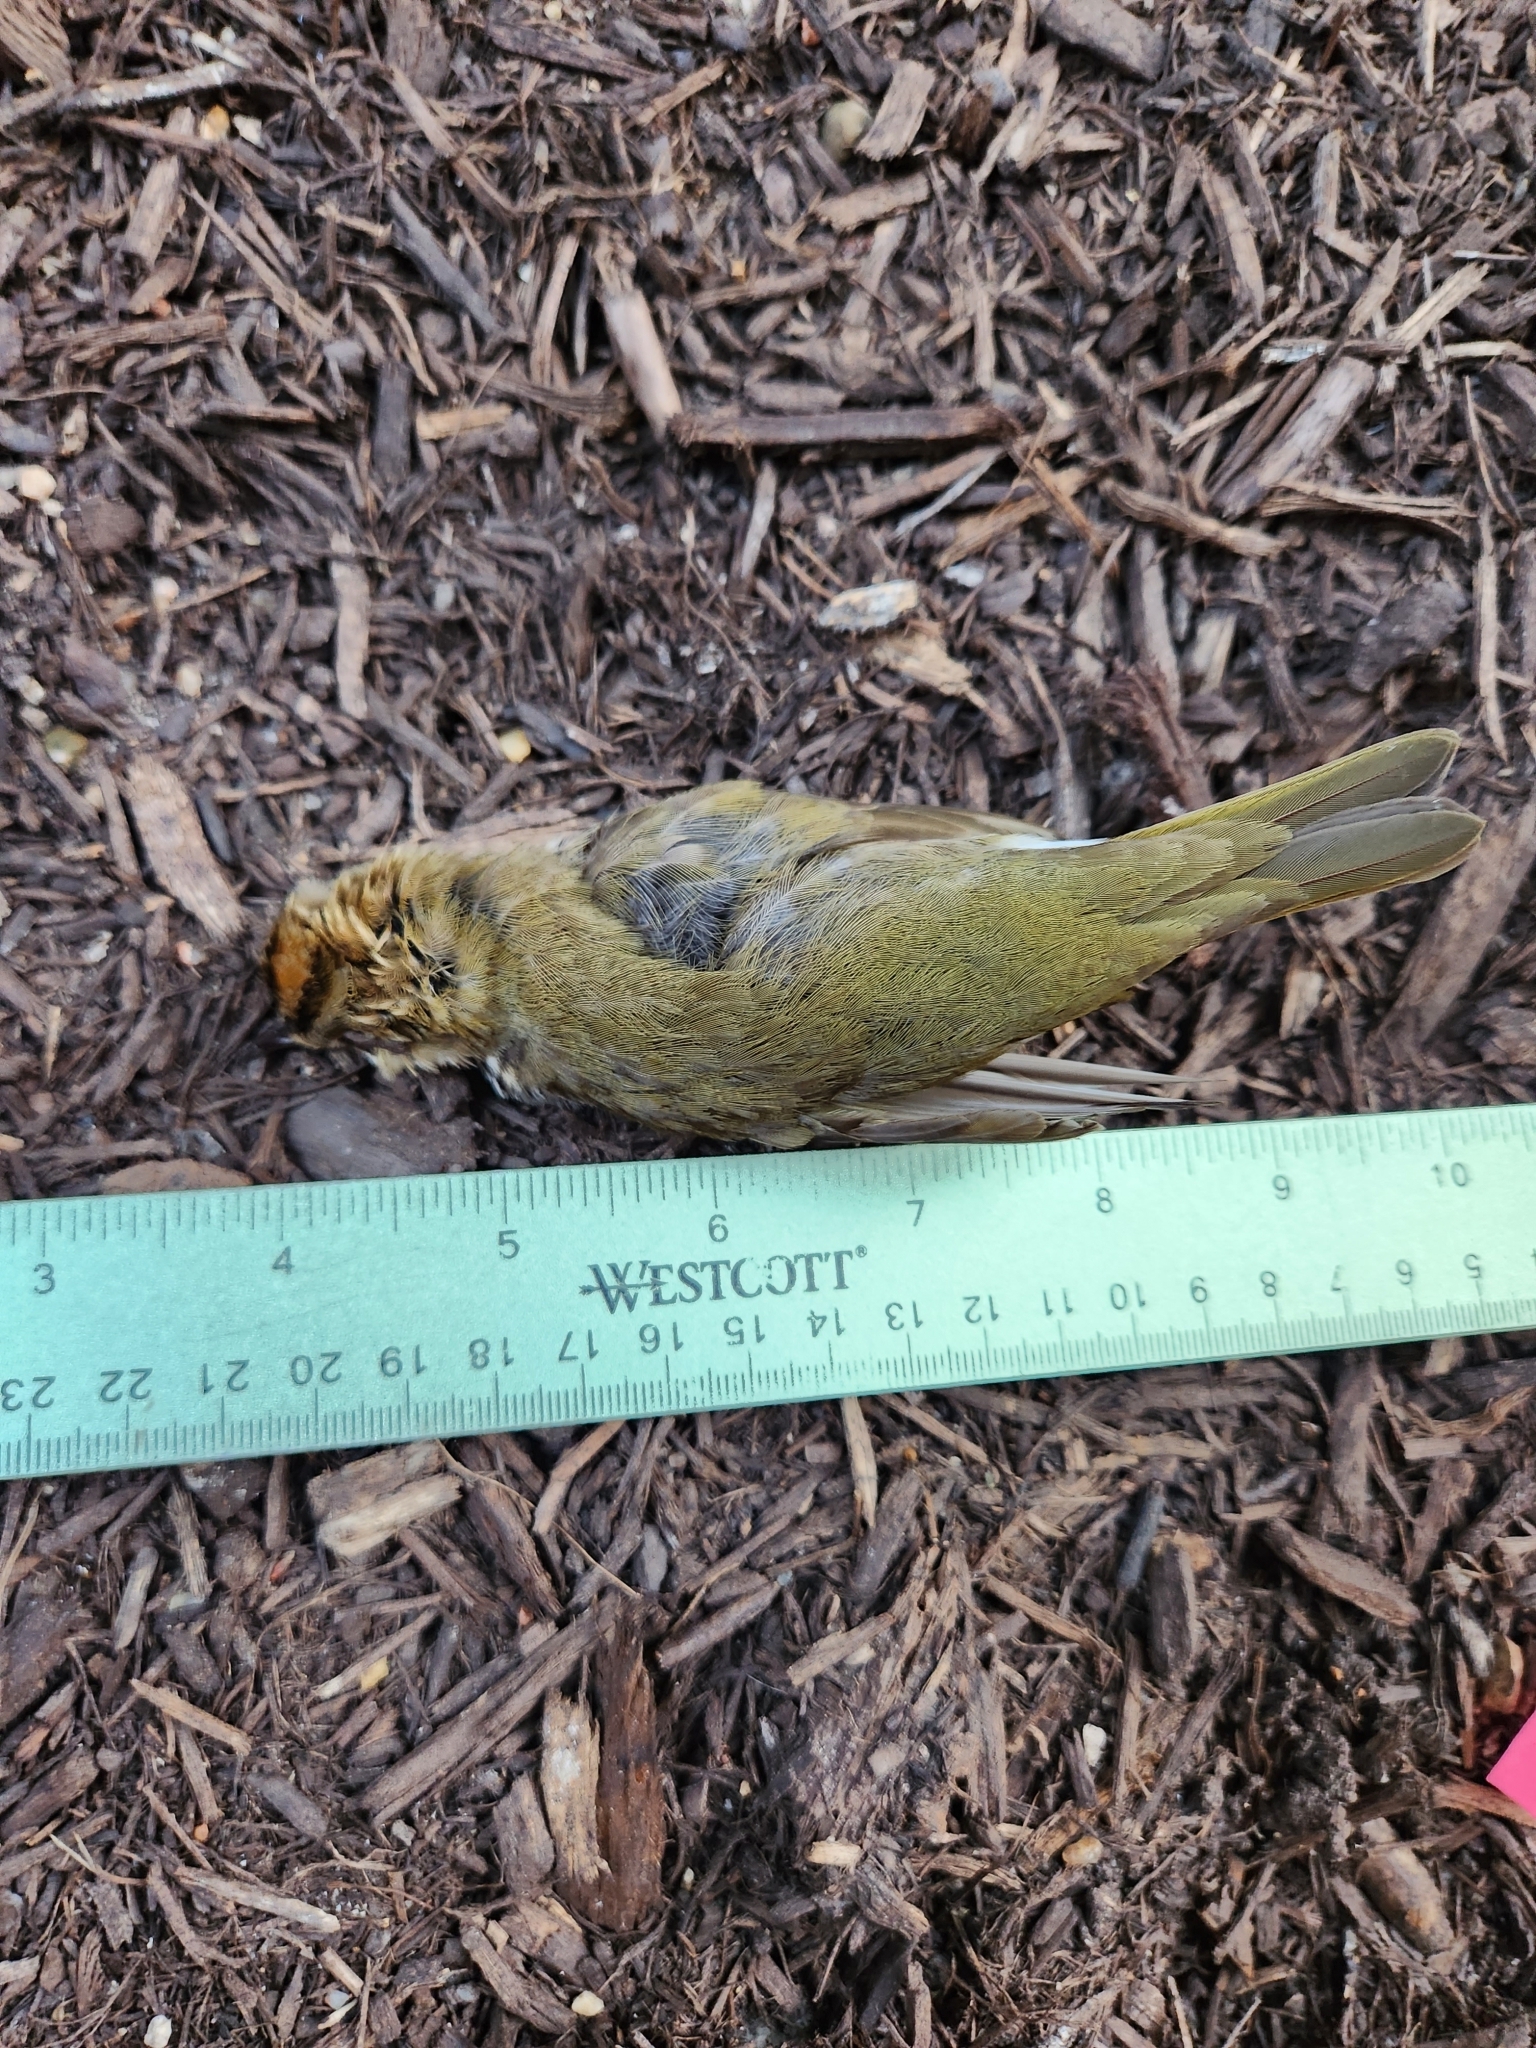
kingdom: Animalia
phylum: Chordata
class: Aves
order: Passeriformes
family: Parulidae
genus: Seiurus
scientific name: Seiurus aurocapilla
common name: Ovenbird
